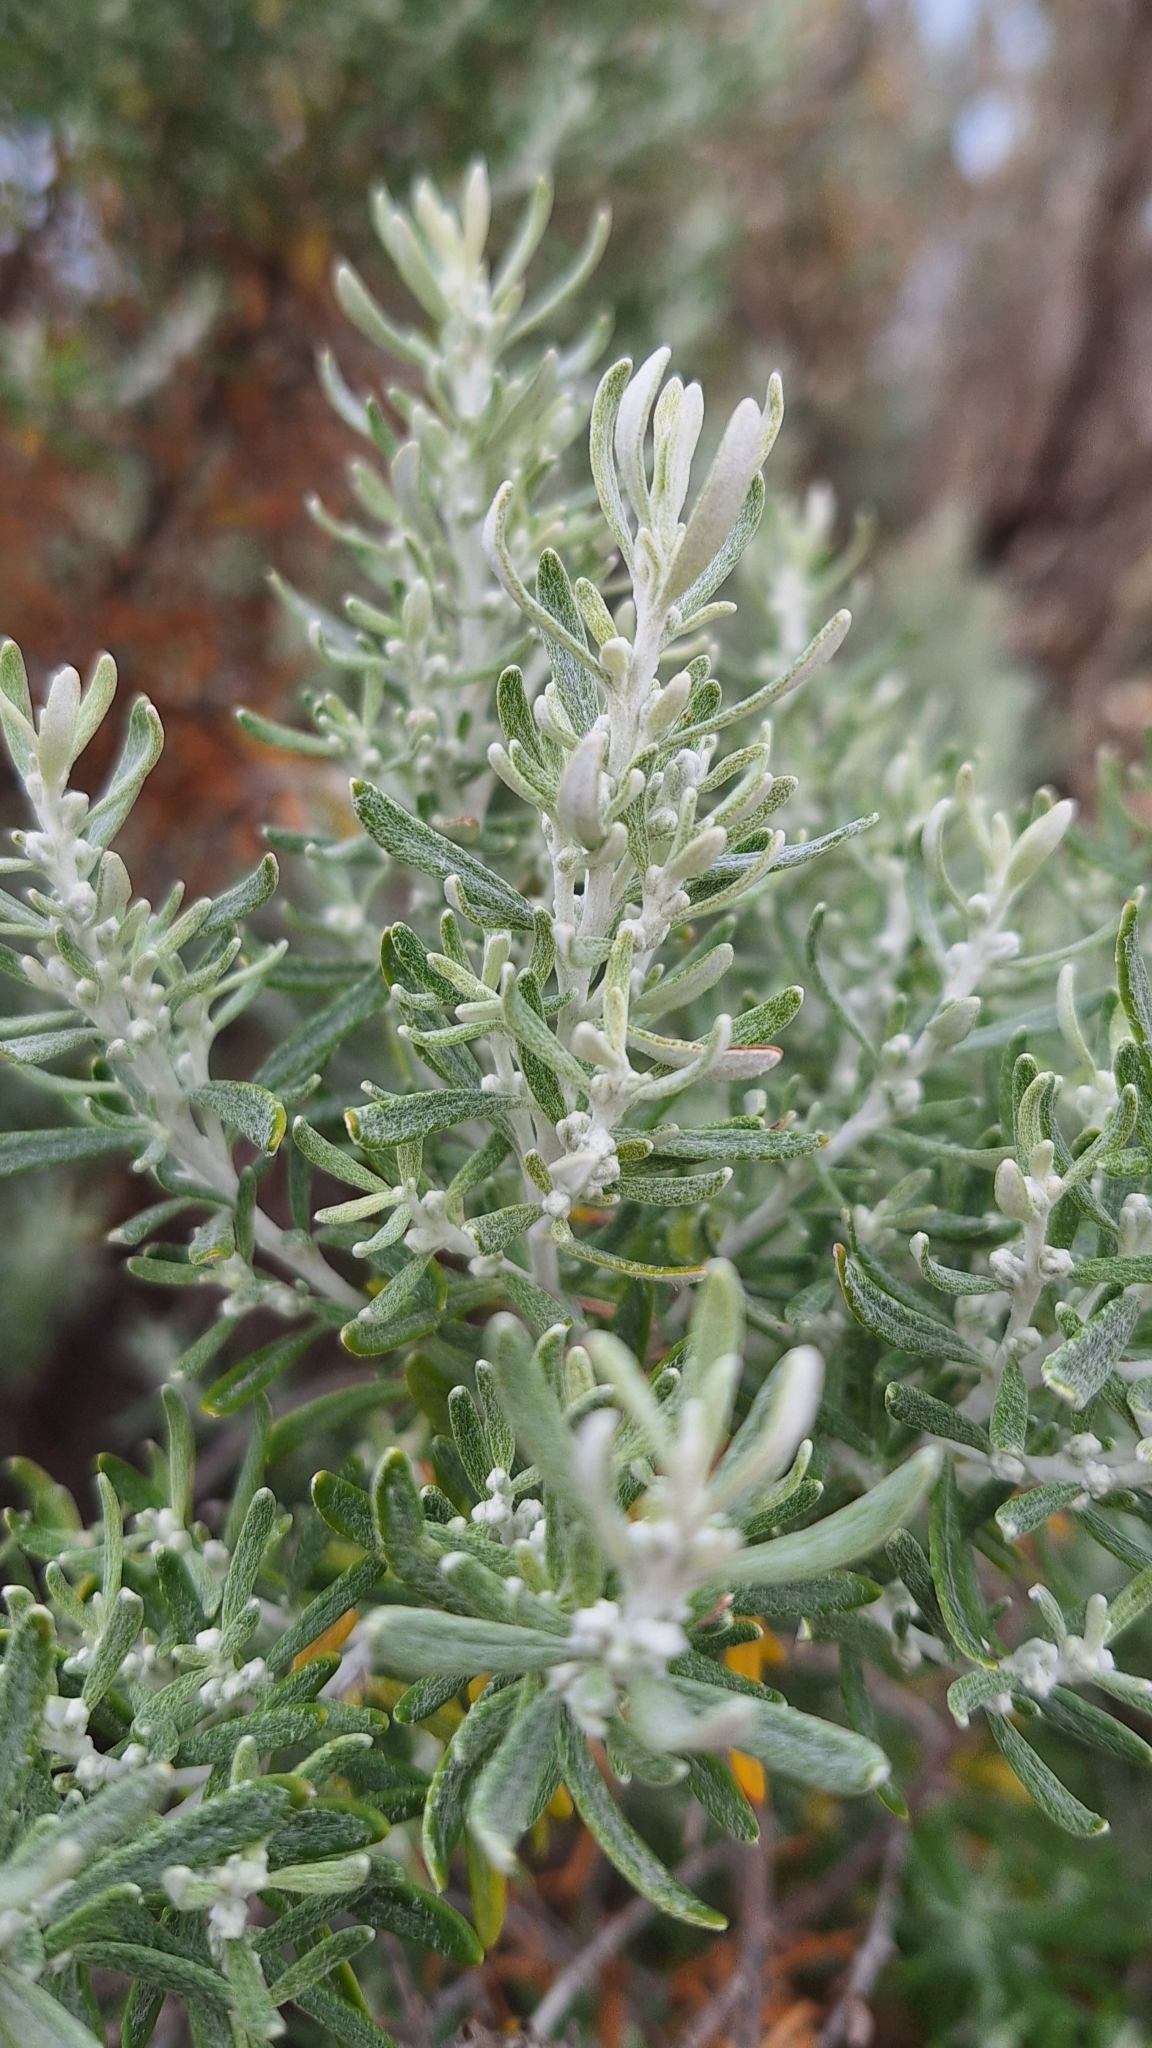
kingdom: Plantae
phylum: Tracheophyta
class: Magnoliopsida
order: Asterales
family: Asteraceae
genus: Olearia
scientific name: Olearia axillaris
